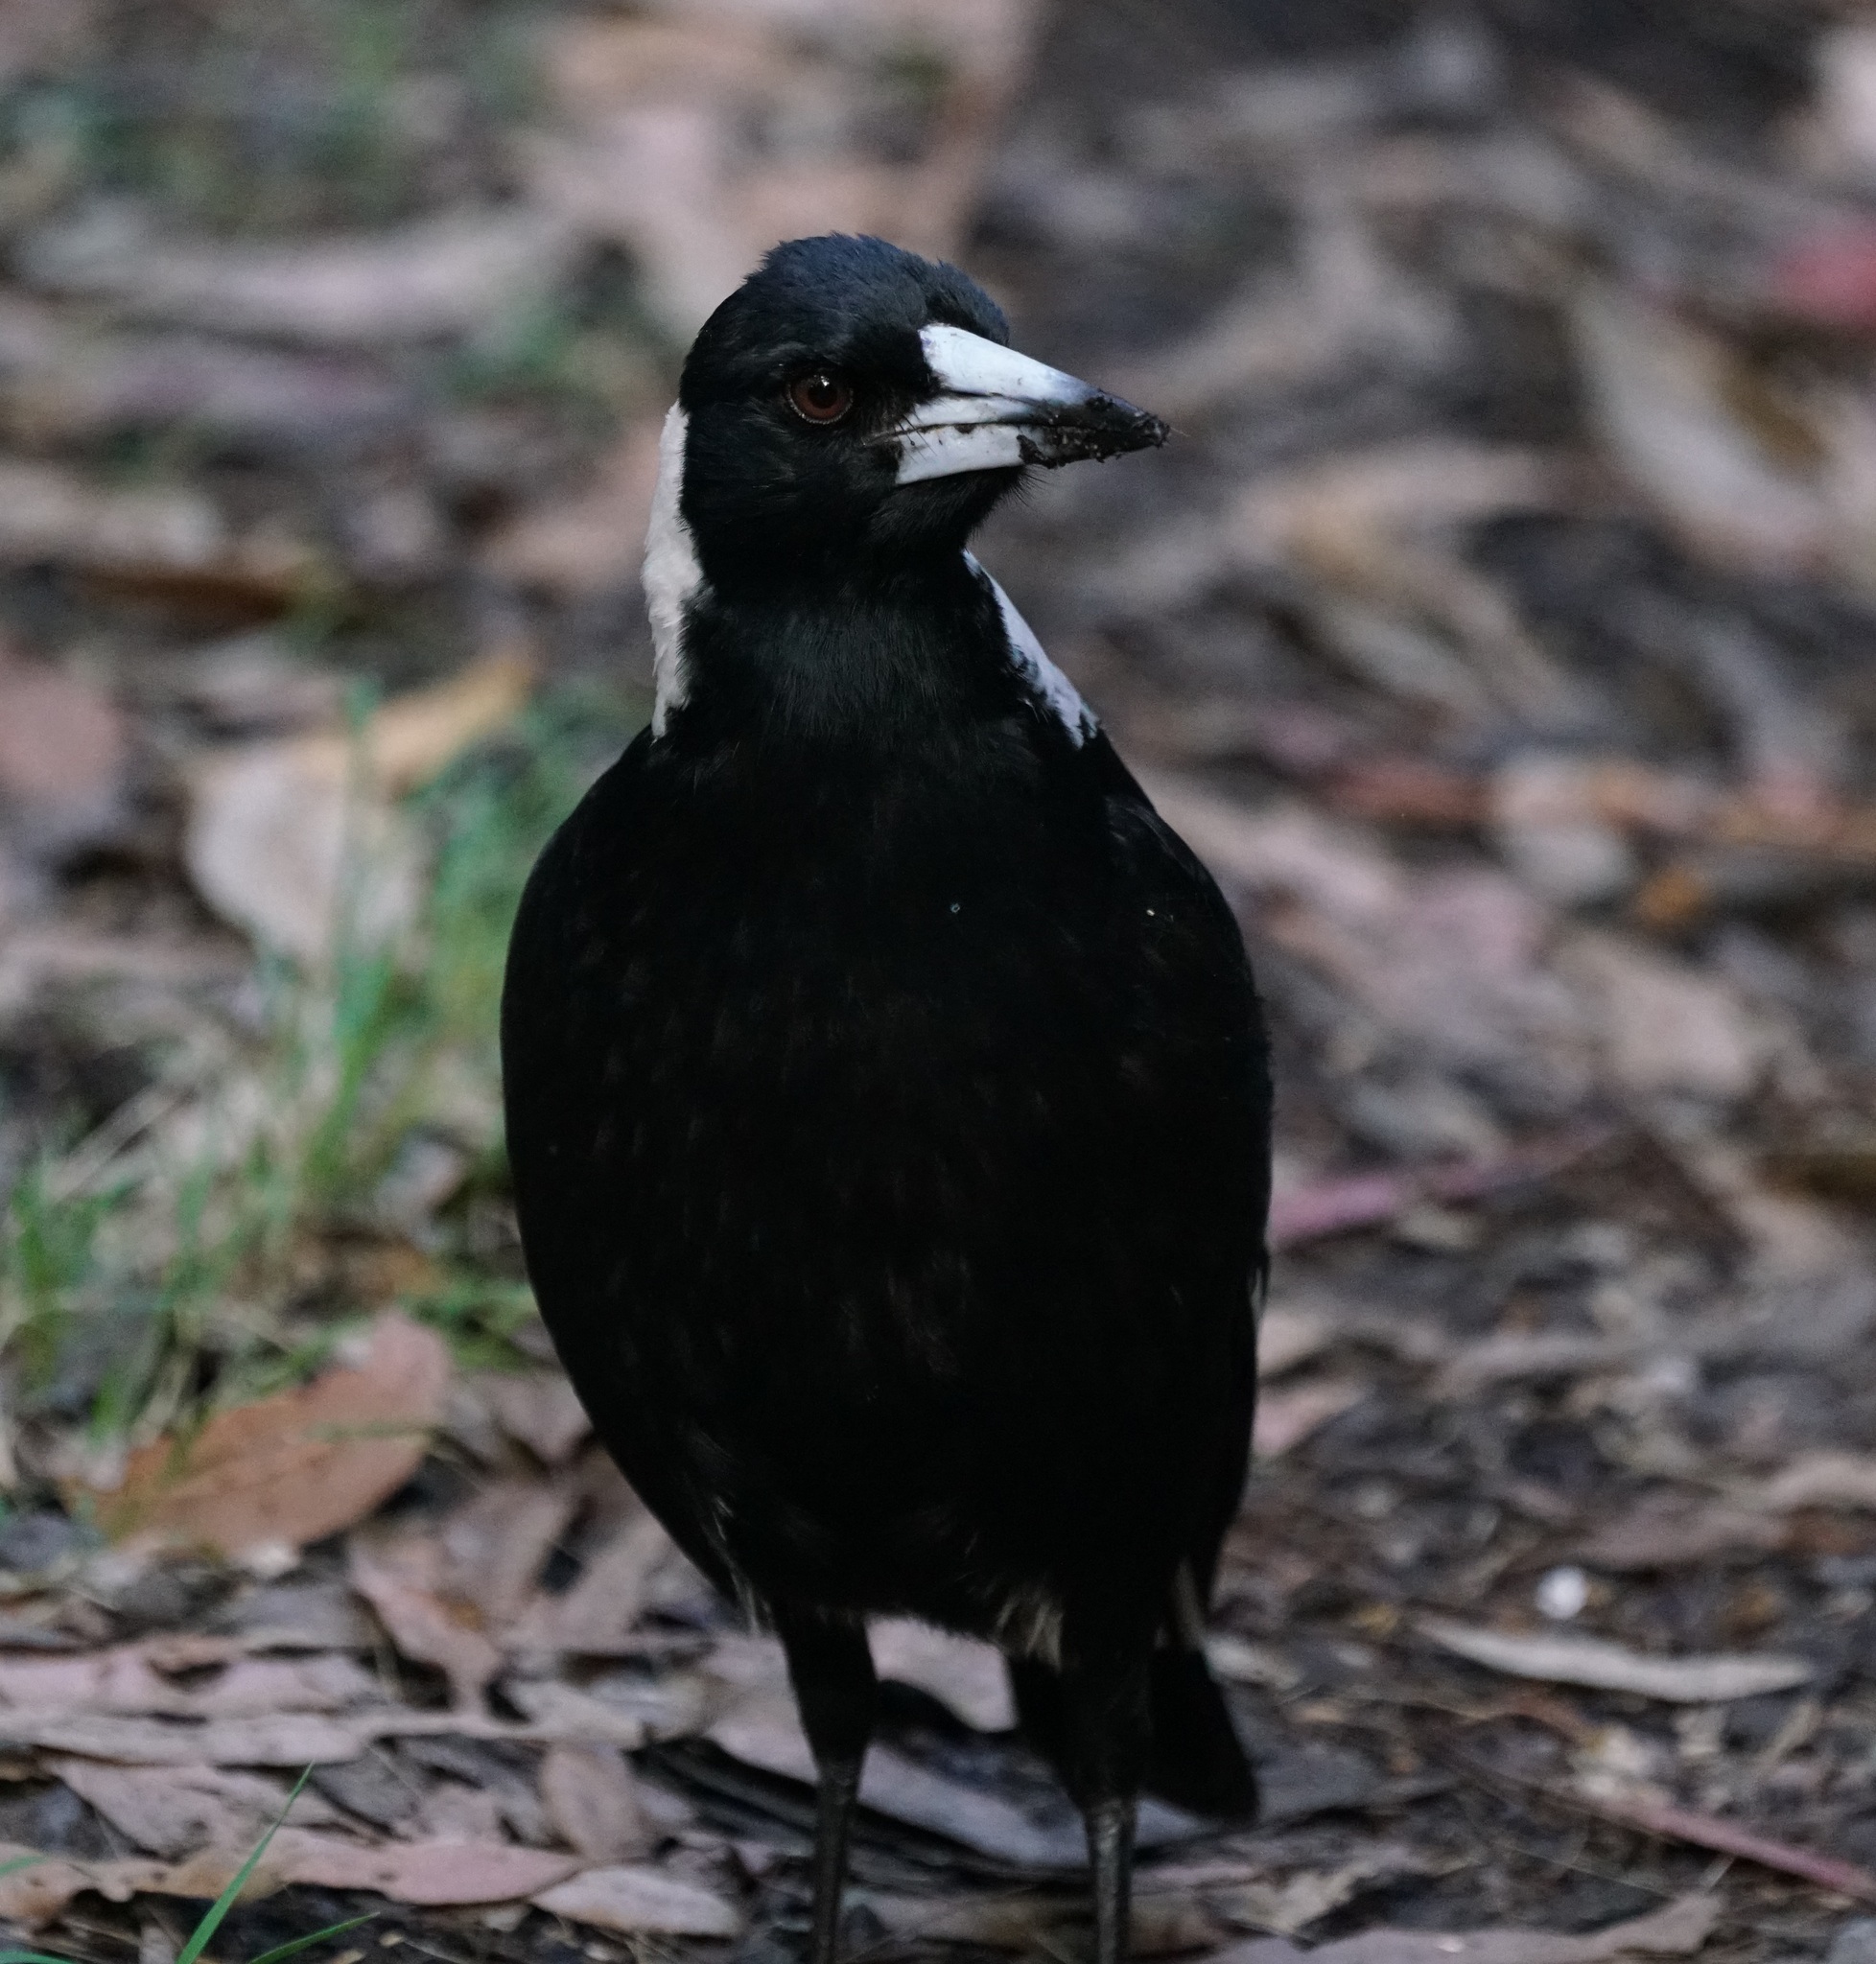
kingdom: Animalia
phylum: Chordata
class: Aves
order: Passeriformes
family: Cracticidae
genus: Gymnorhina
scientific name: Gymnorhina tibicen
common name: Australian magpie
